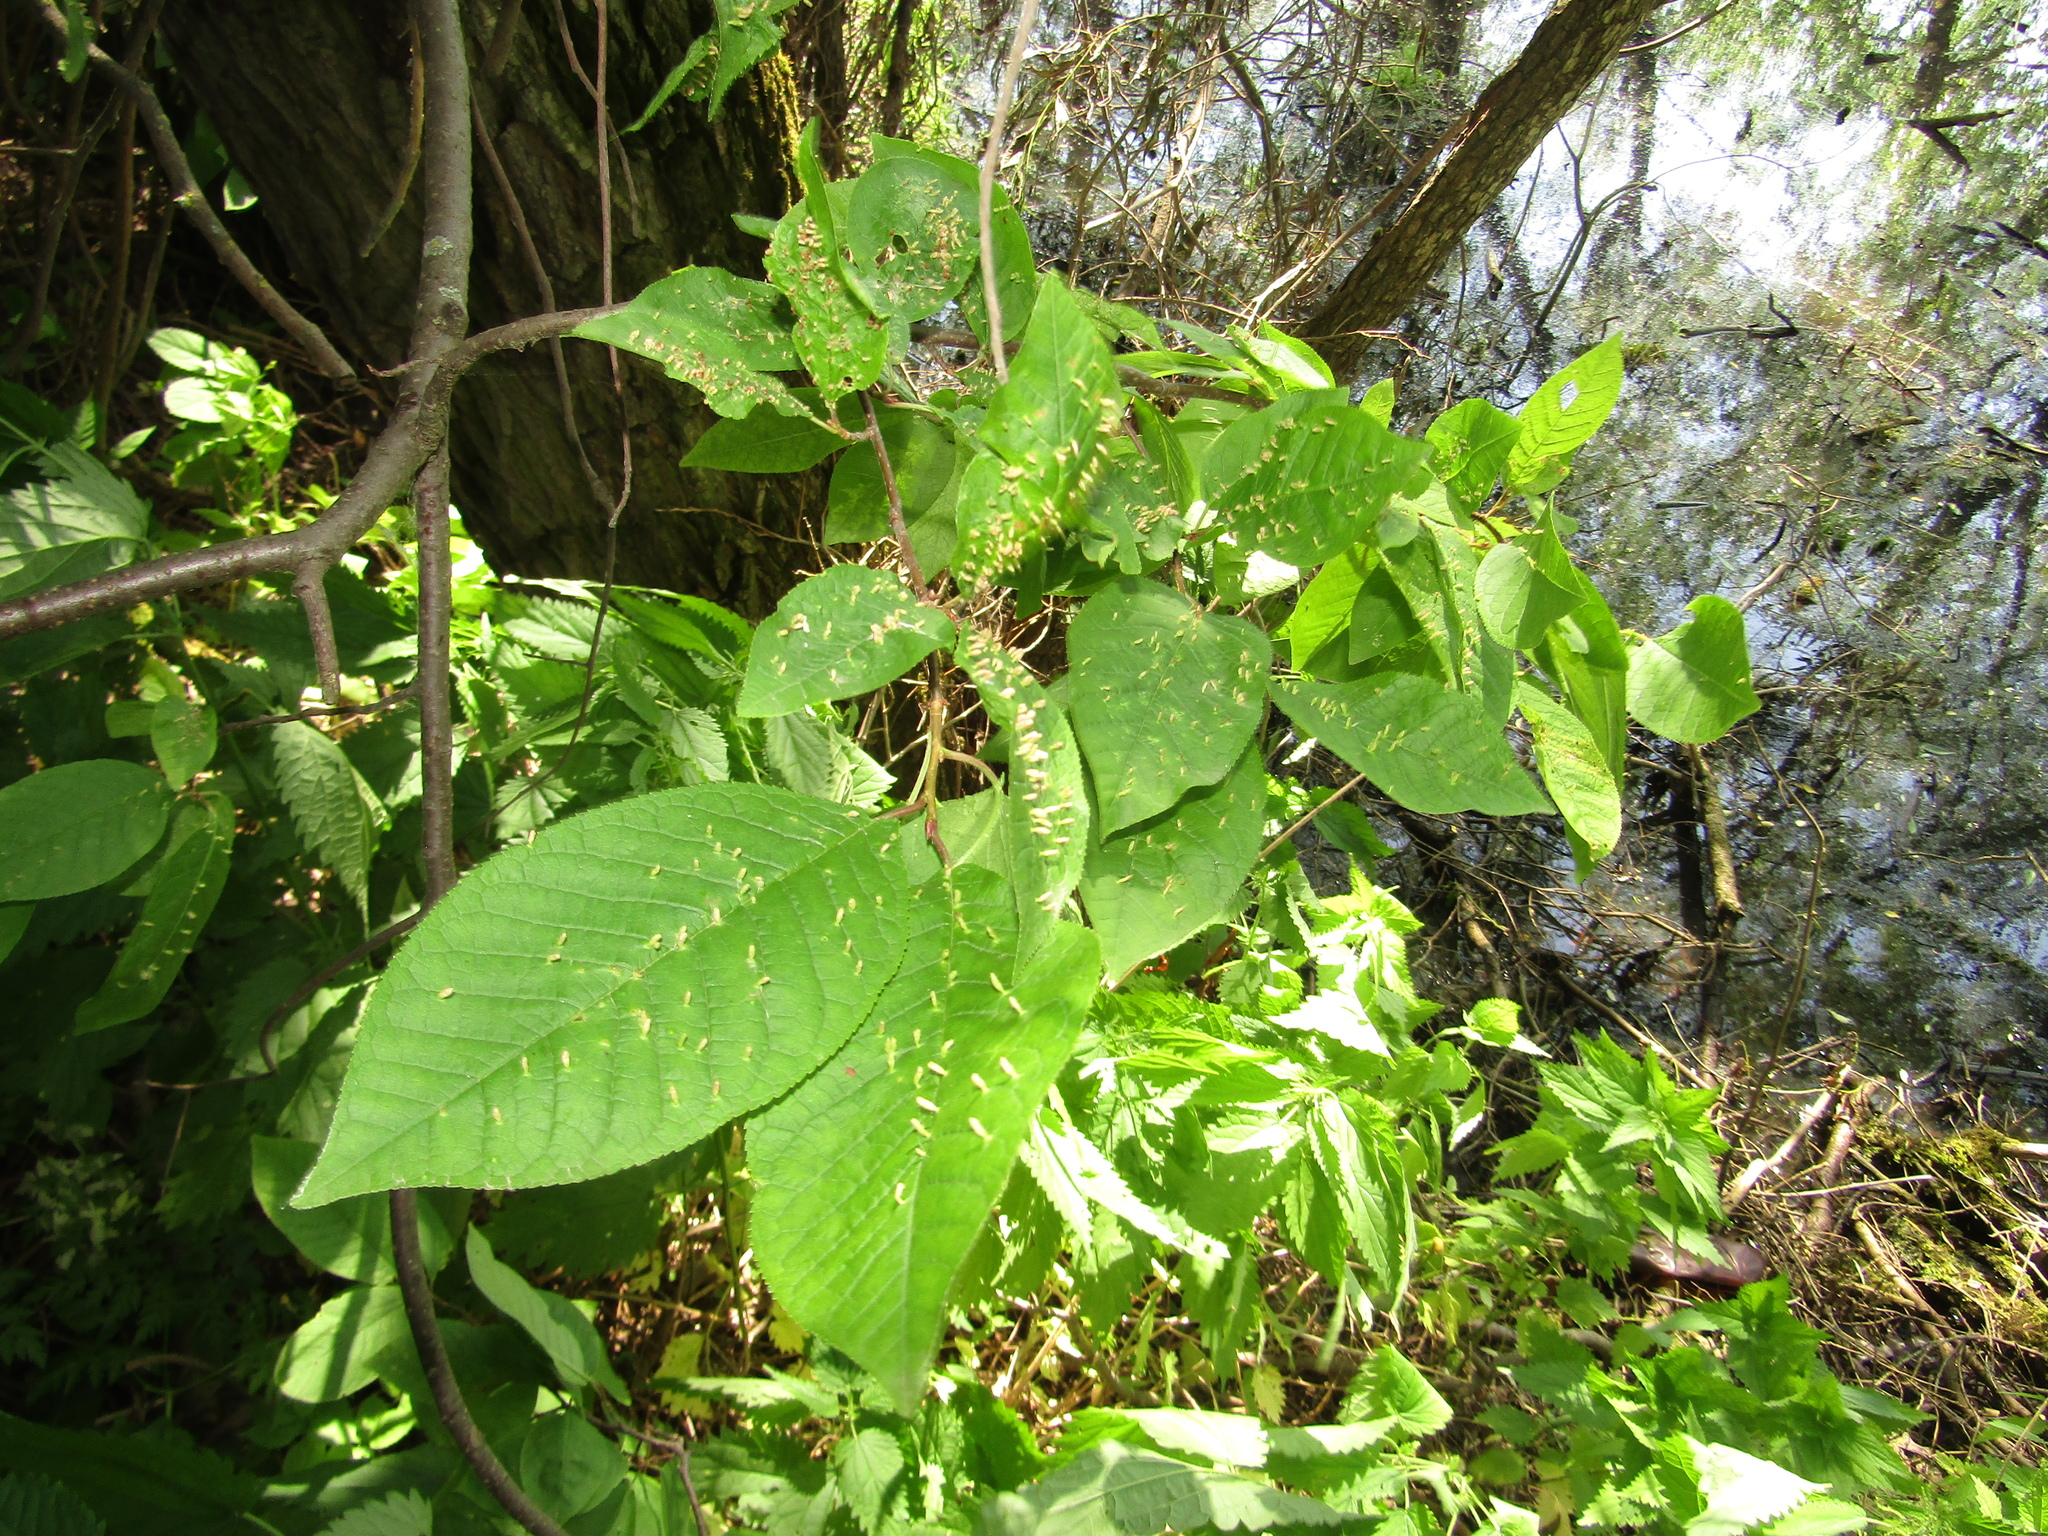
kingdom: Plantae
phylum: Tracheophyta
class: Magnoliopsida
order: Rosales
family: Rosaceae
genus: Prunus
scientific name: Prunus padus
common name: Bird cherry
